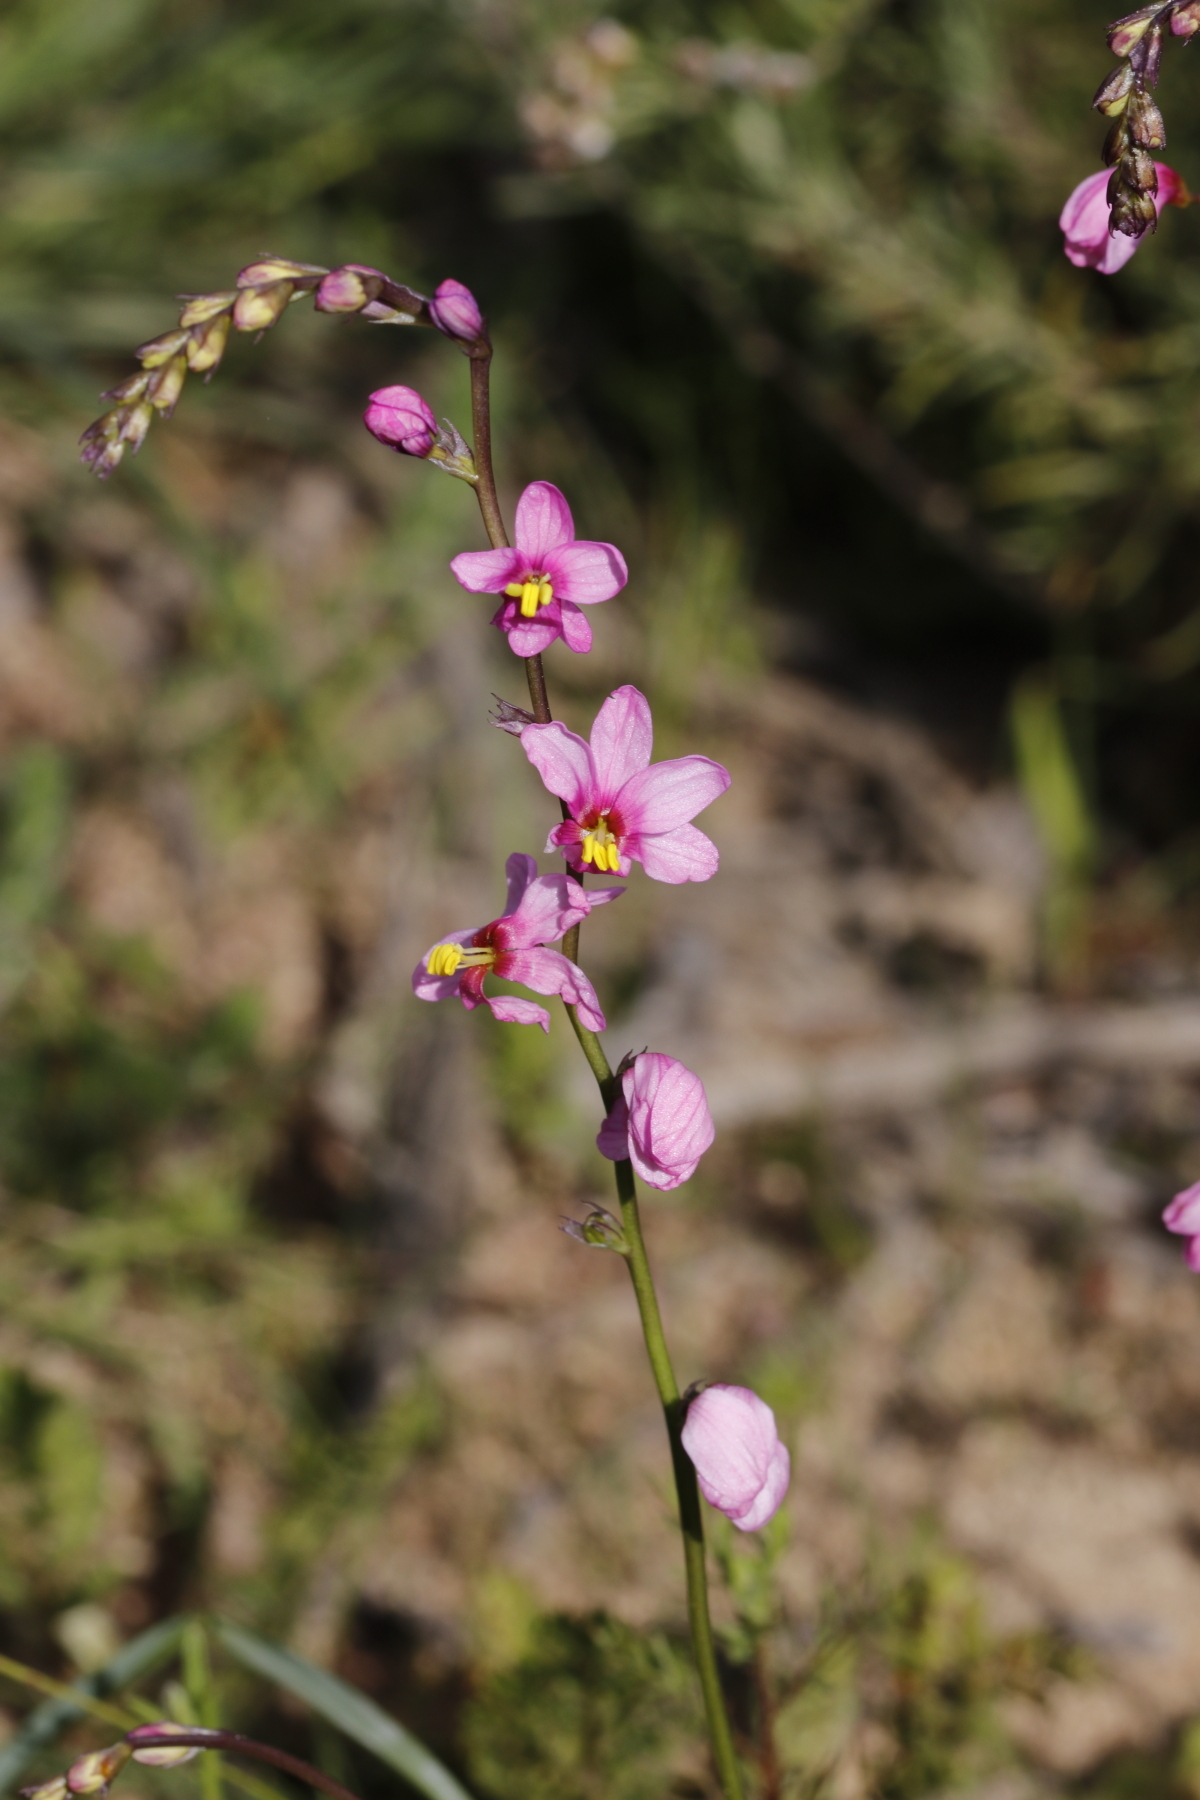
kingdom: Plantae
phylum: Tracheophyta
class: Liliopsida
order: Asparagales
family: Iridaceae
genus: Ixia
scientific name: Ixia scillaris
